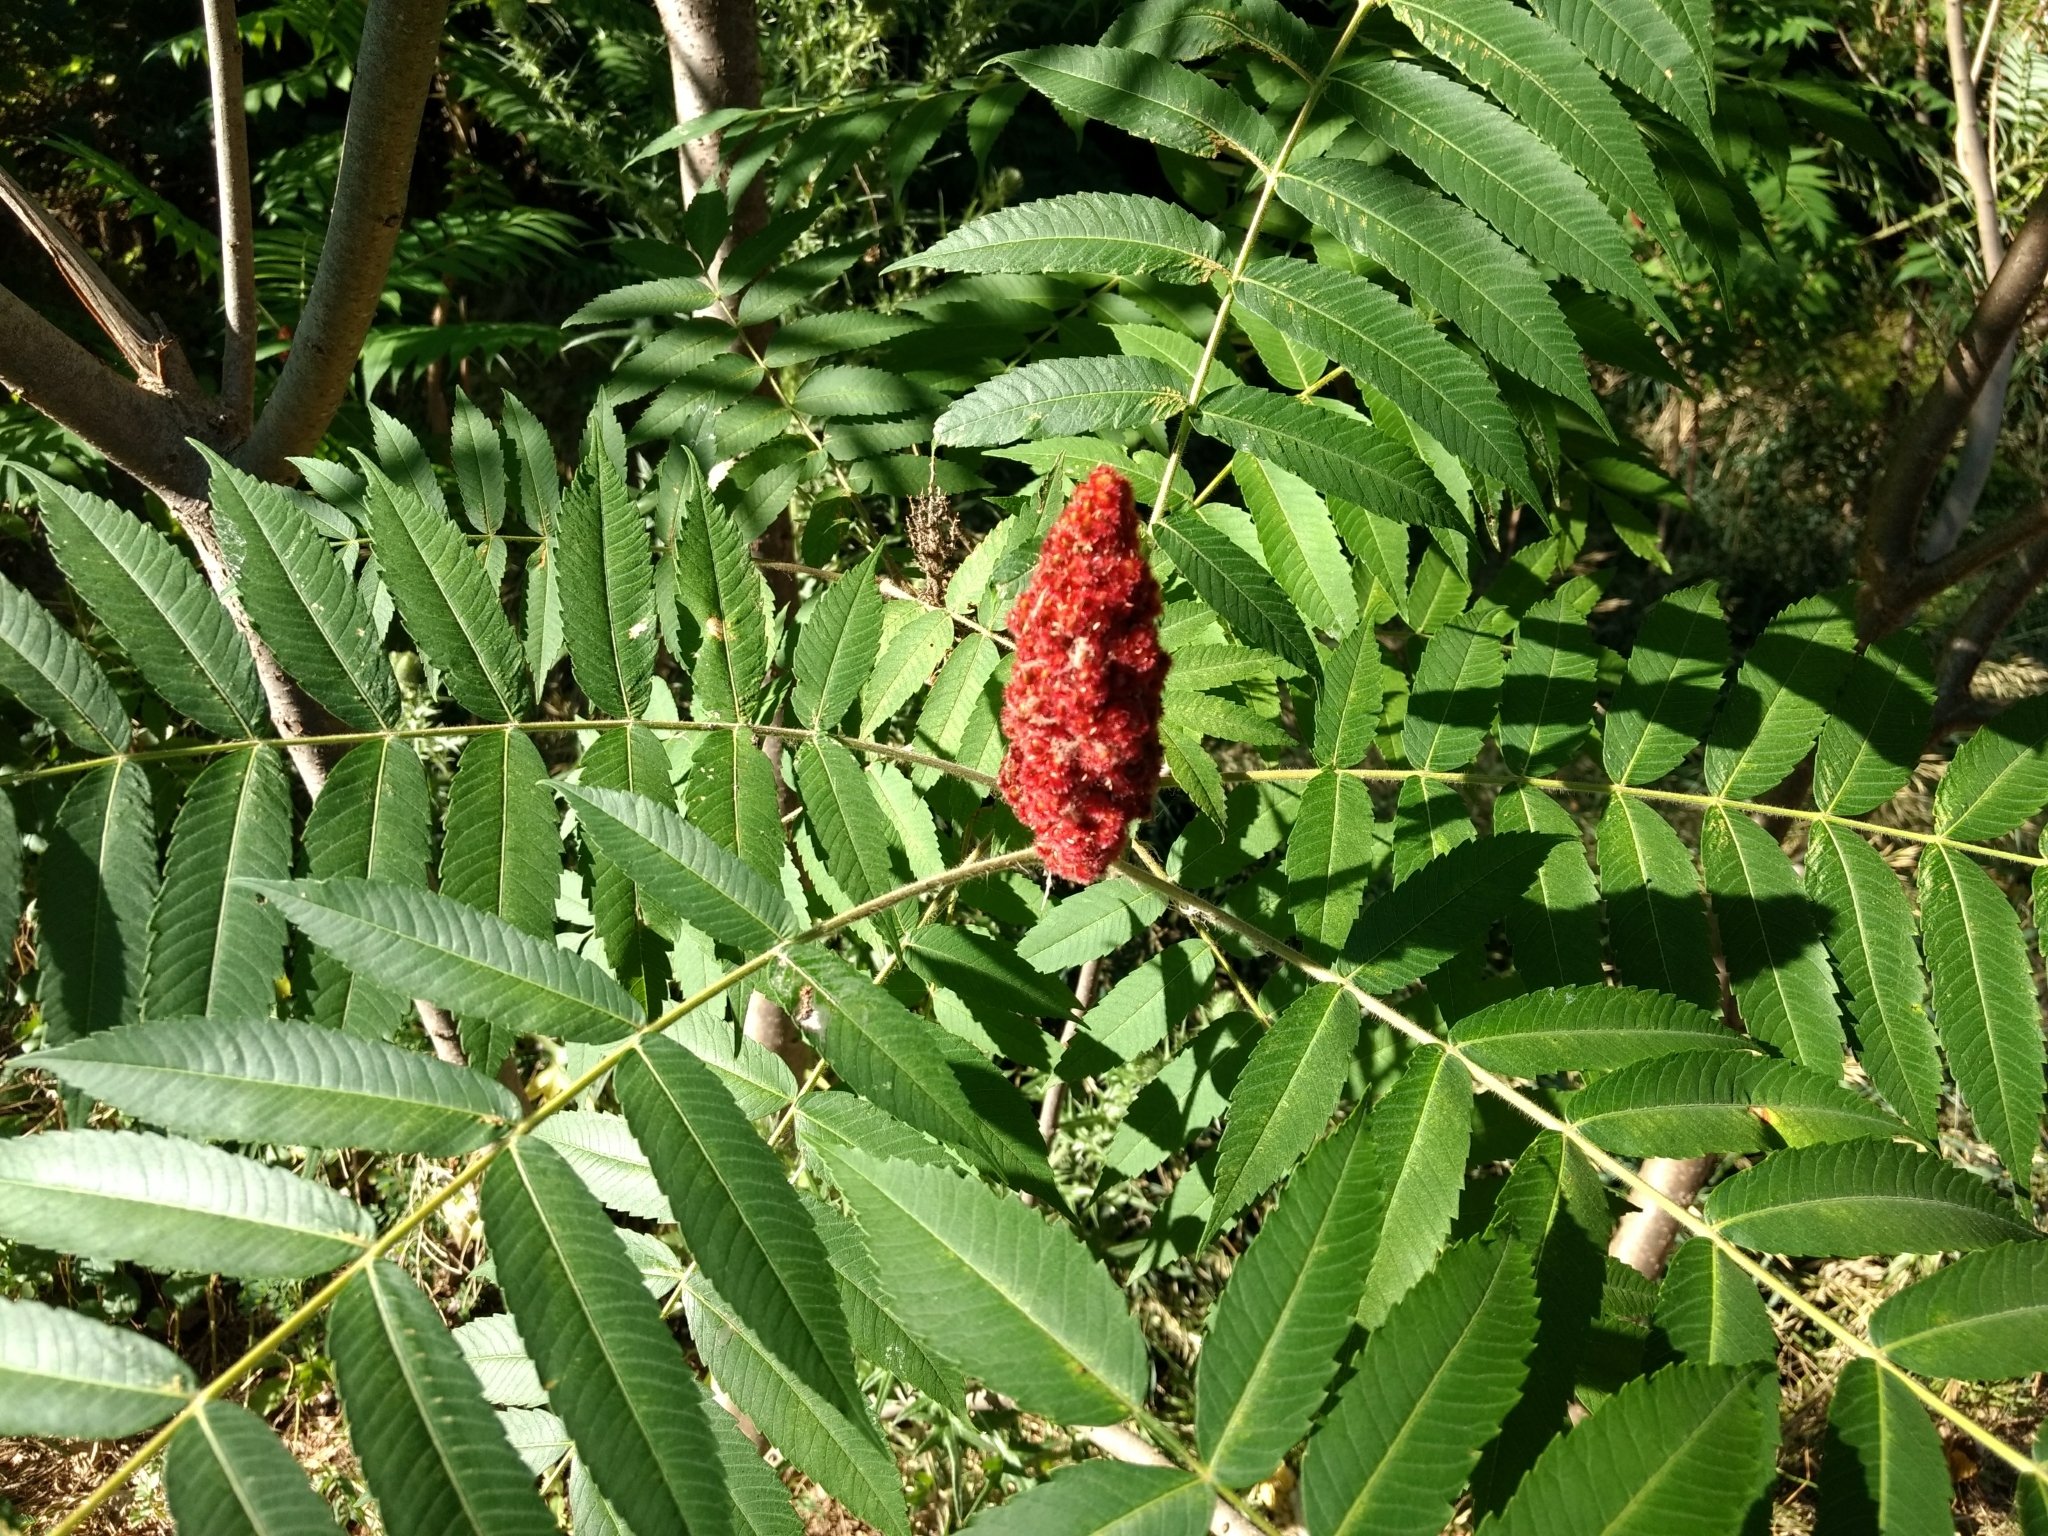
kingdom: Plantae
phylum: Tracheophyta
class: Magnoliopsida
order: Sapindales
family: Anacardiaceae
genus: Rhus
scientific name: Rhus typhina
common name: Staghorn sumac
